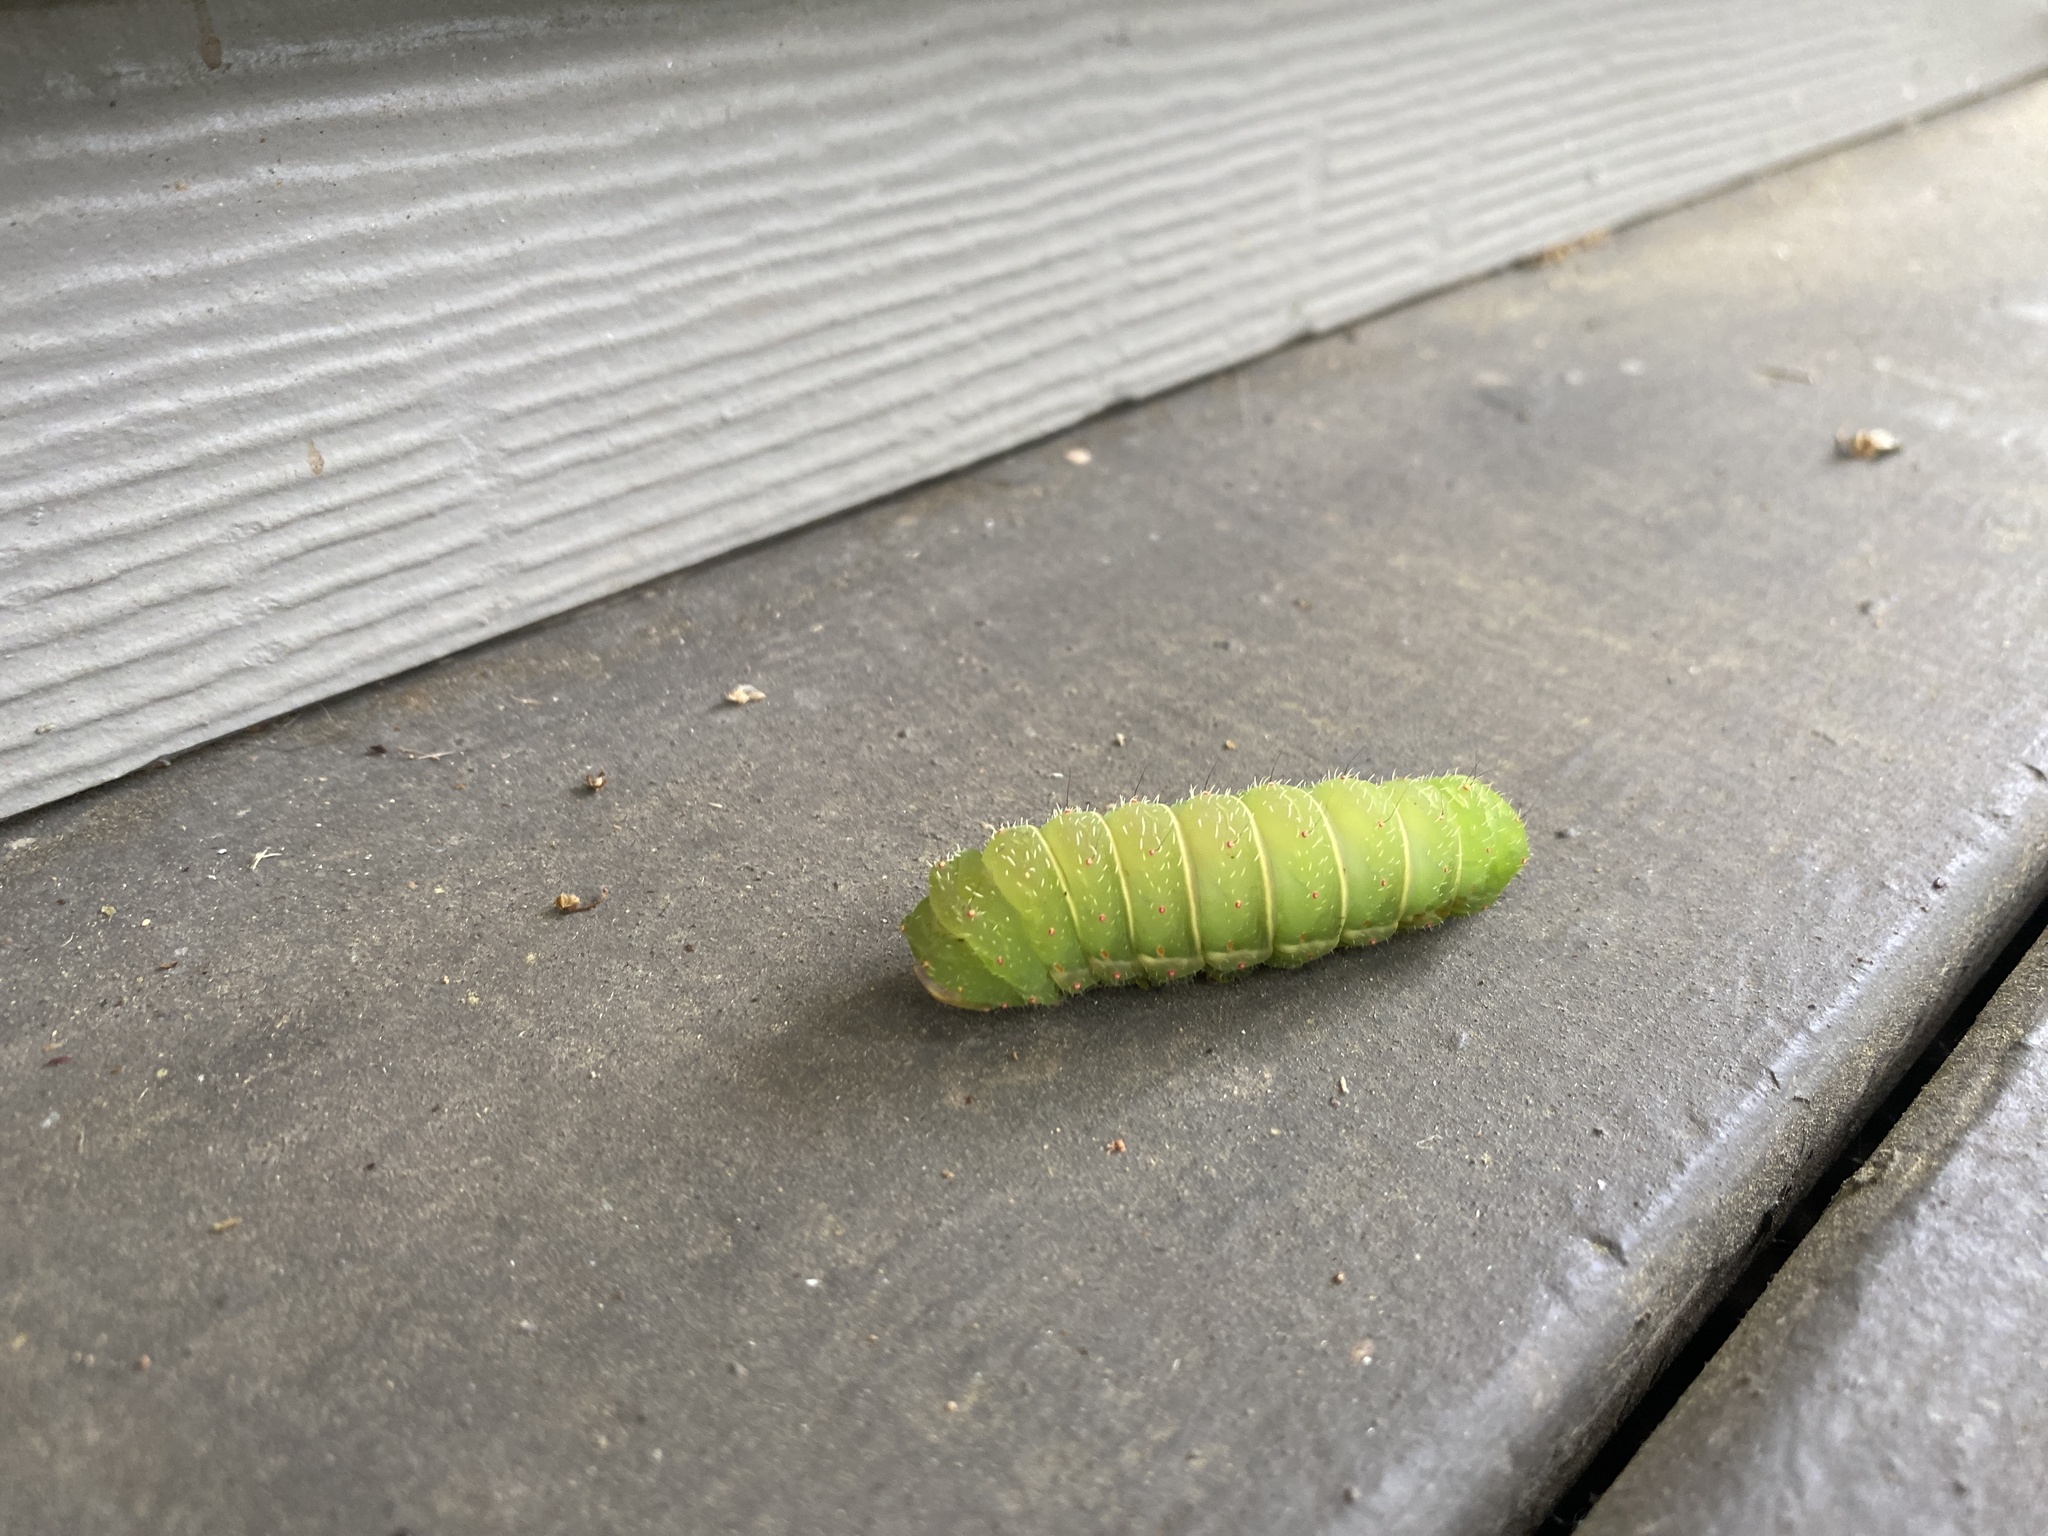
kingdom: Animalia
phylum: Arthropoda
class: Insecta
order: Lepidoptera
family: Saturniidae
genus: Actias
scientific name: Actias luna
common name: Luna moth
